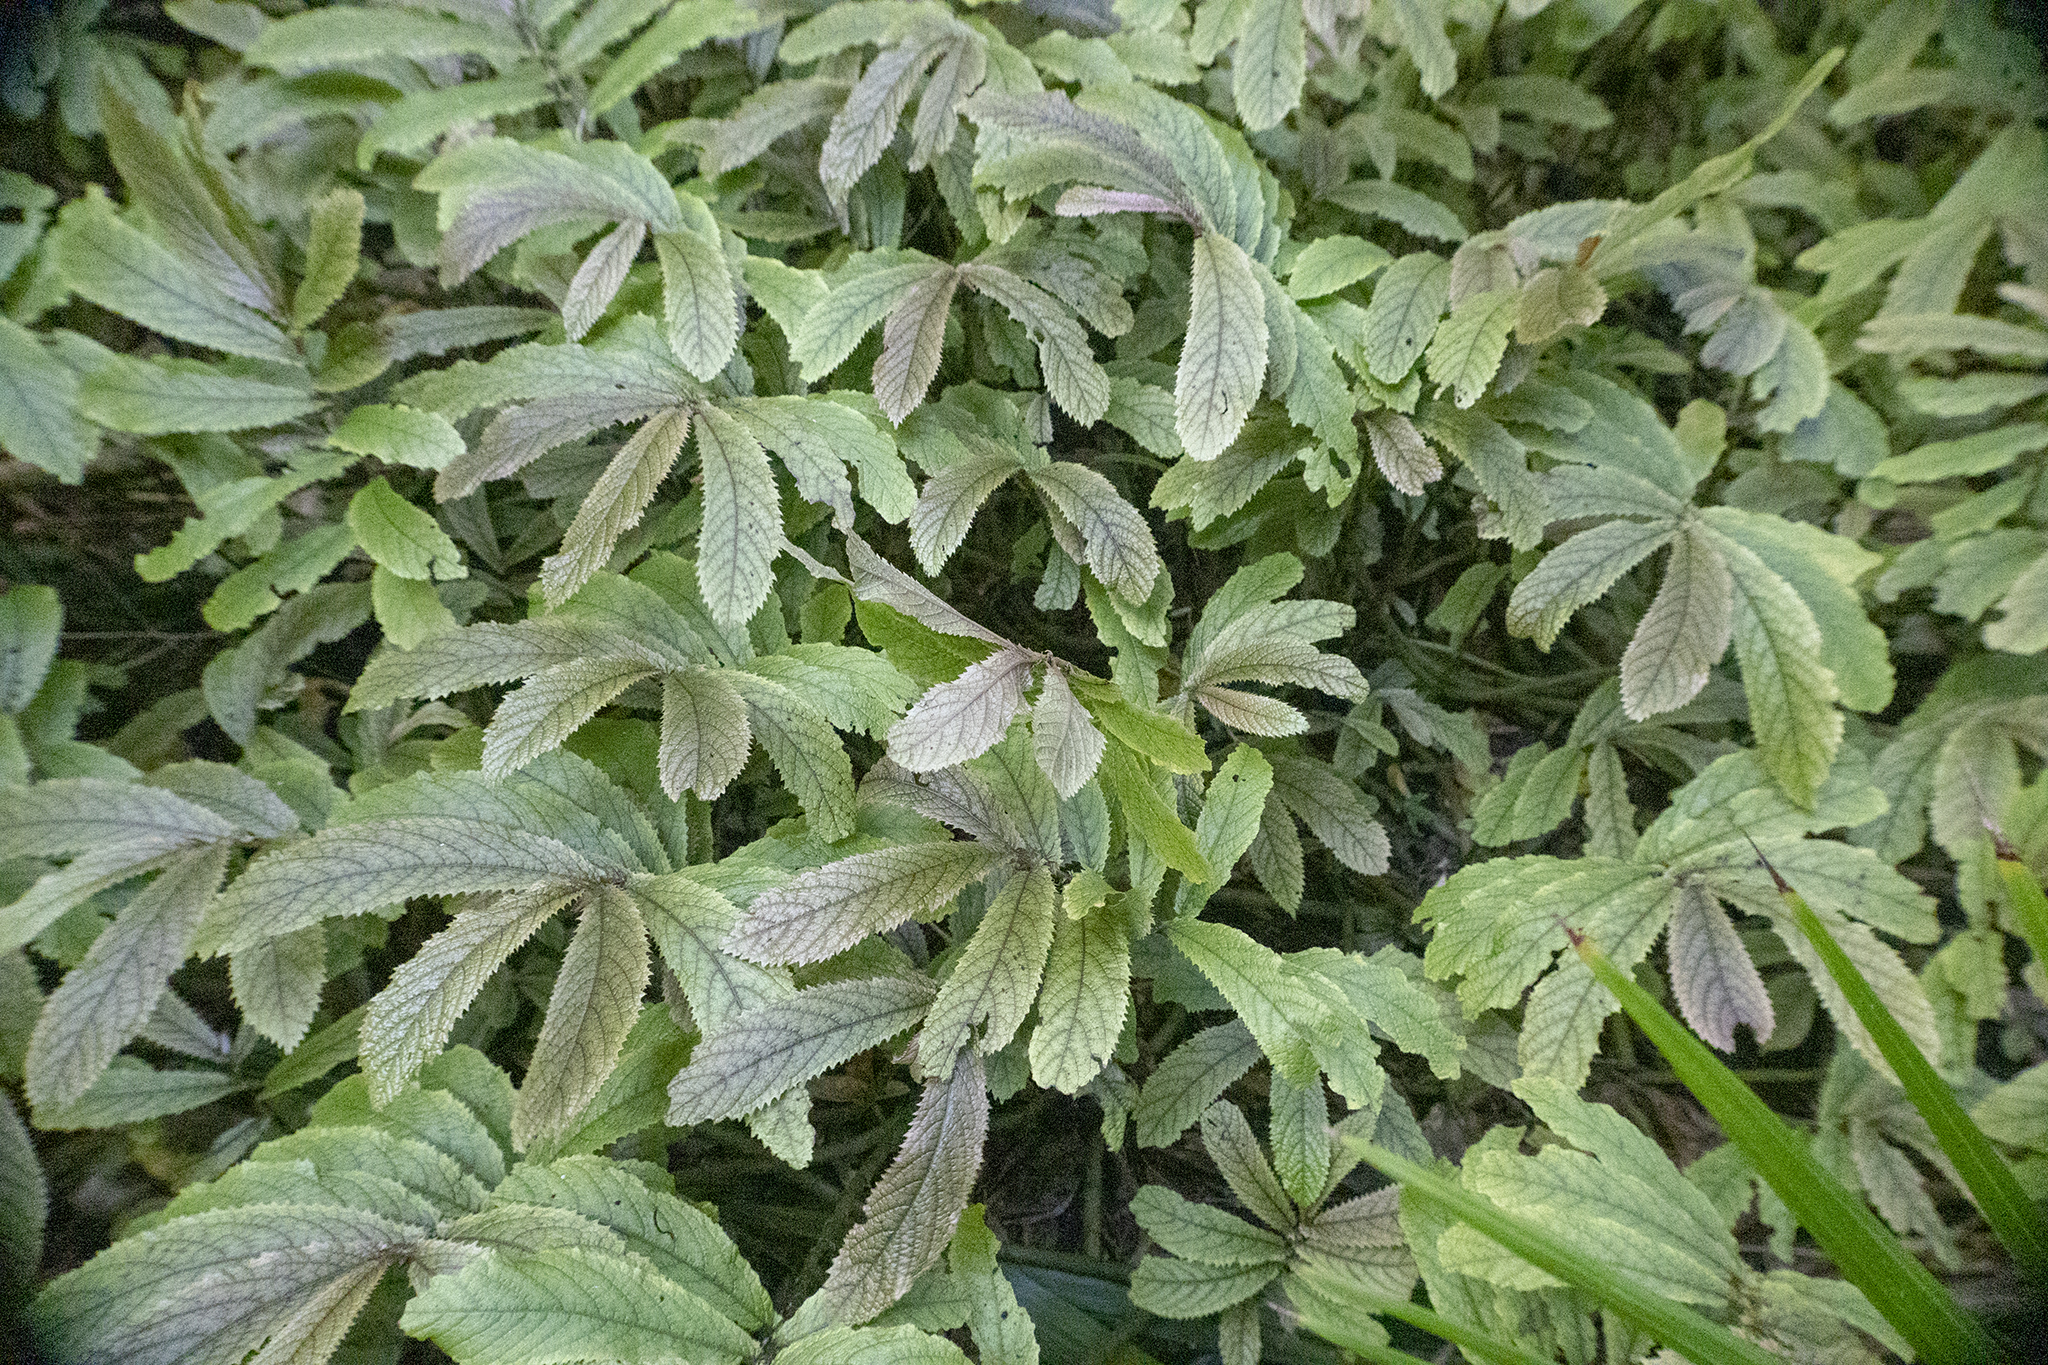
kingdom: Plantae
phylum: Tracheophyta
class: Magnoliopsida
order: Rosales
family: Urticaceae
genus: Elatostema
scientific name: Elatostema rugosum
